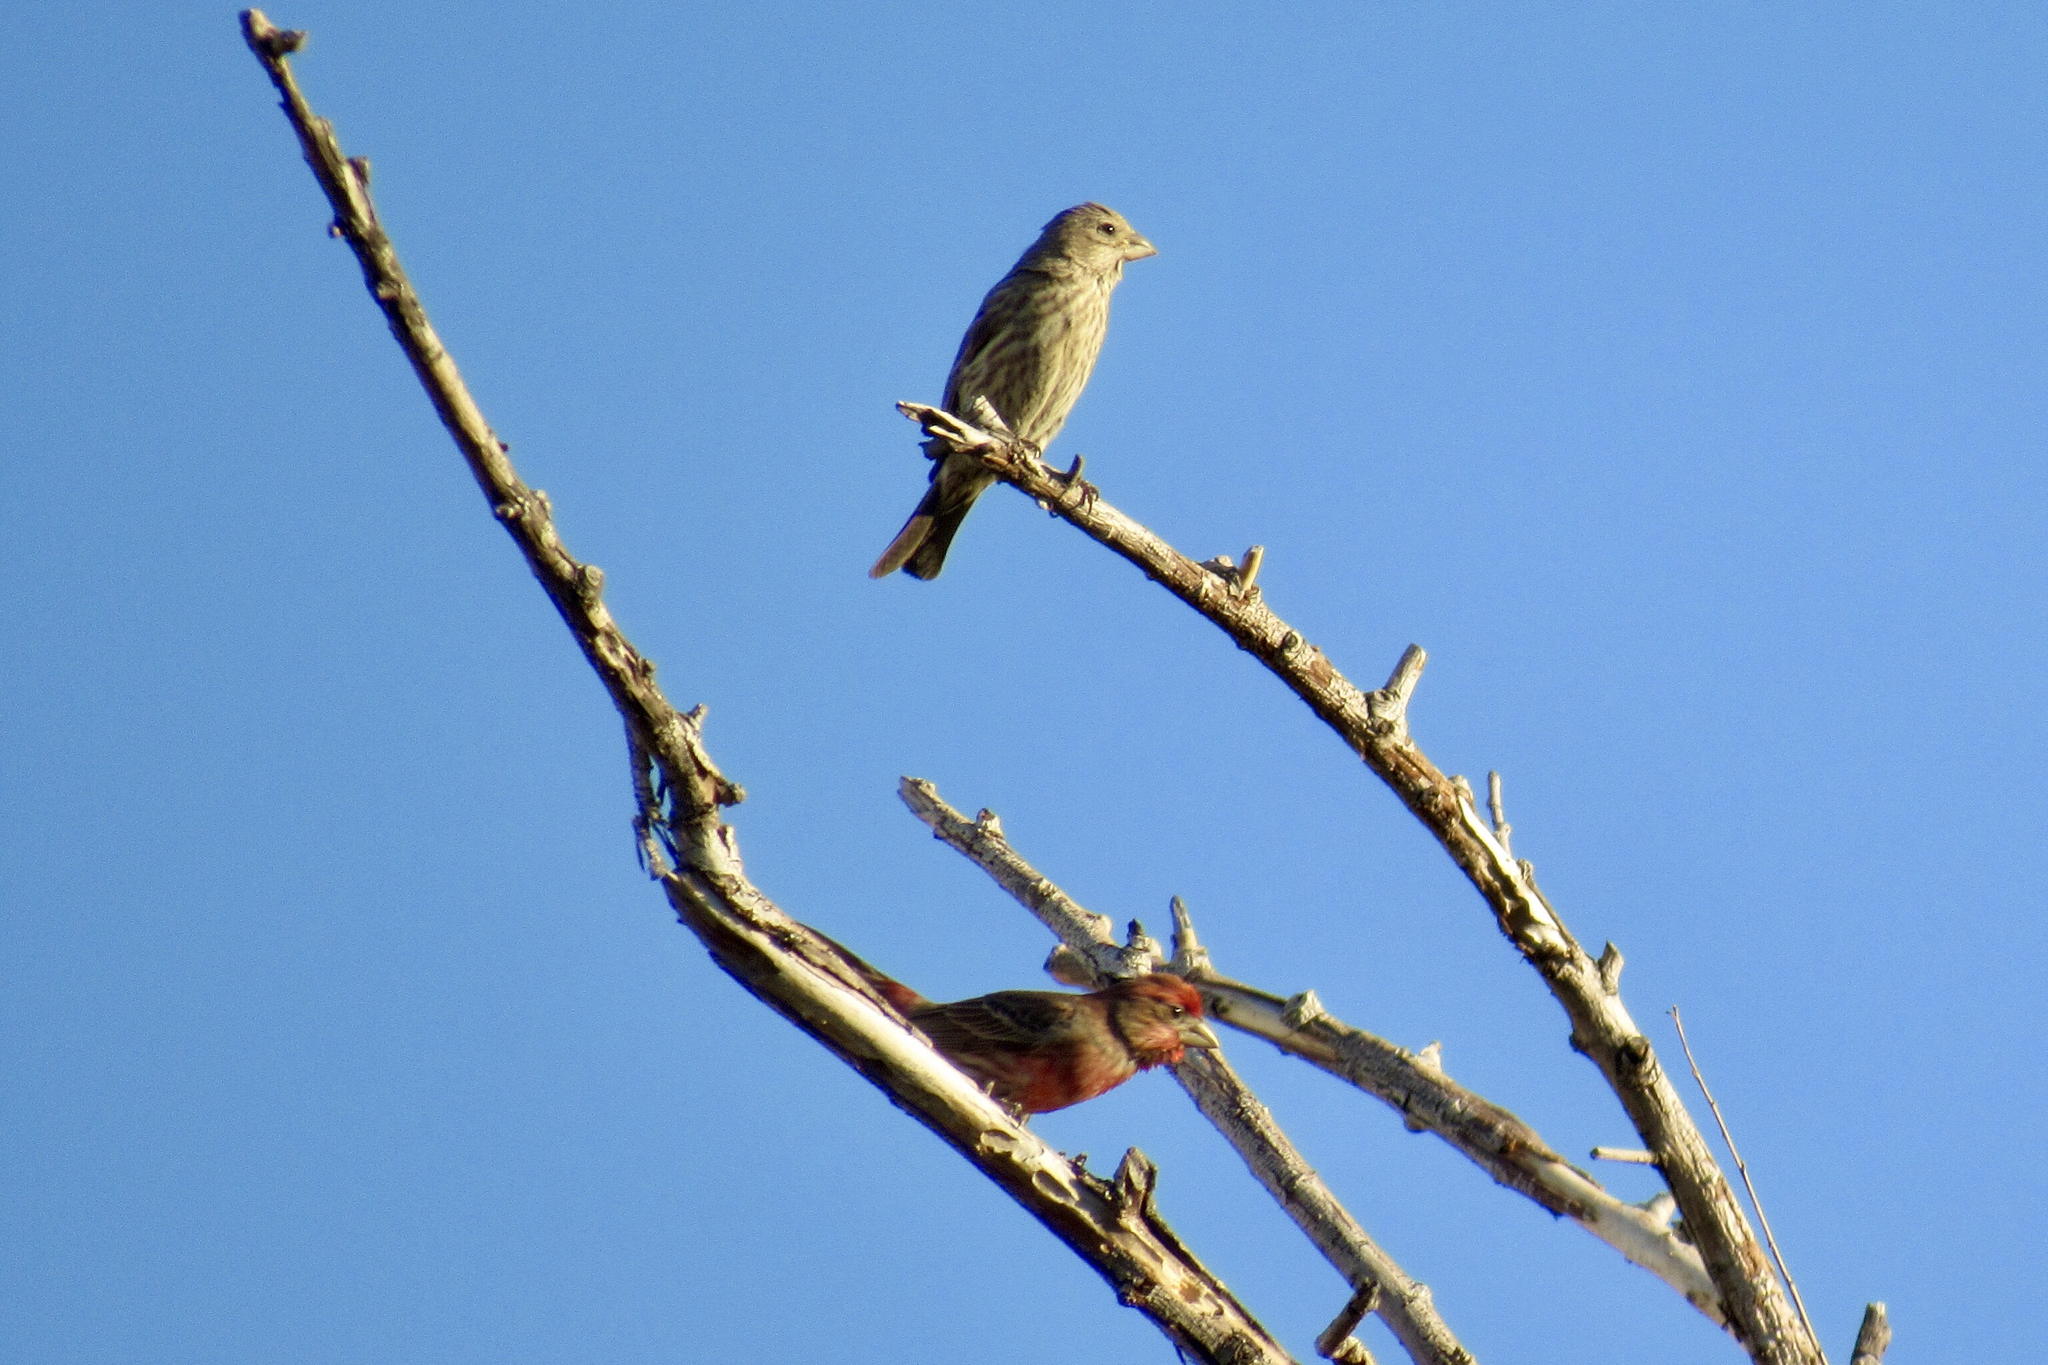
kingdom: Animalia
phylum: Chordata
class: Aves
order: Passeriformes
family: Fringillidae
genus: Haemorhous
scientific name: Haemorhous mexicanus
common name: House finch
